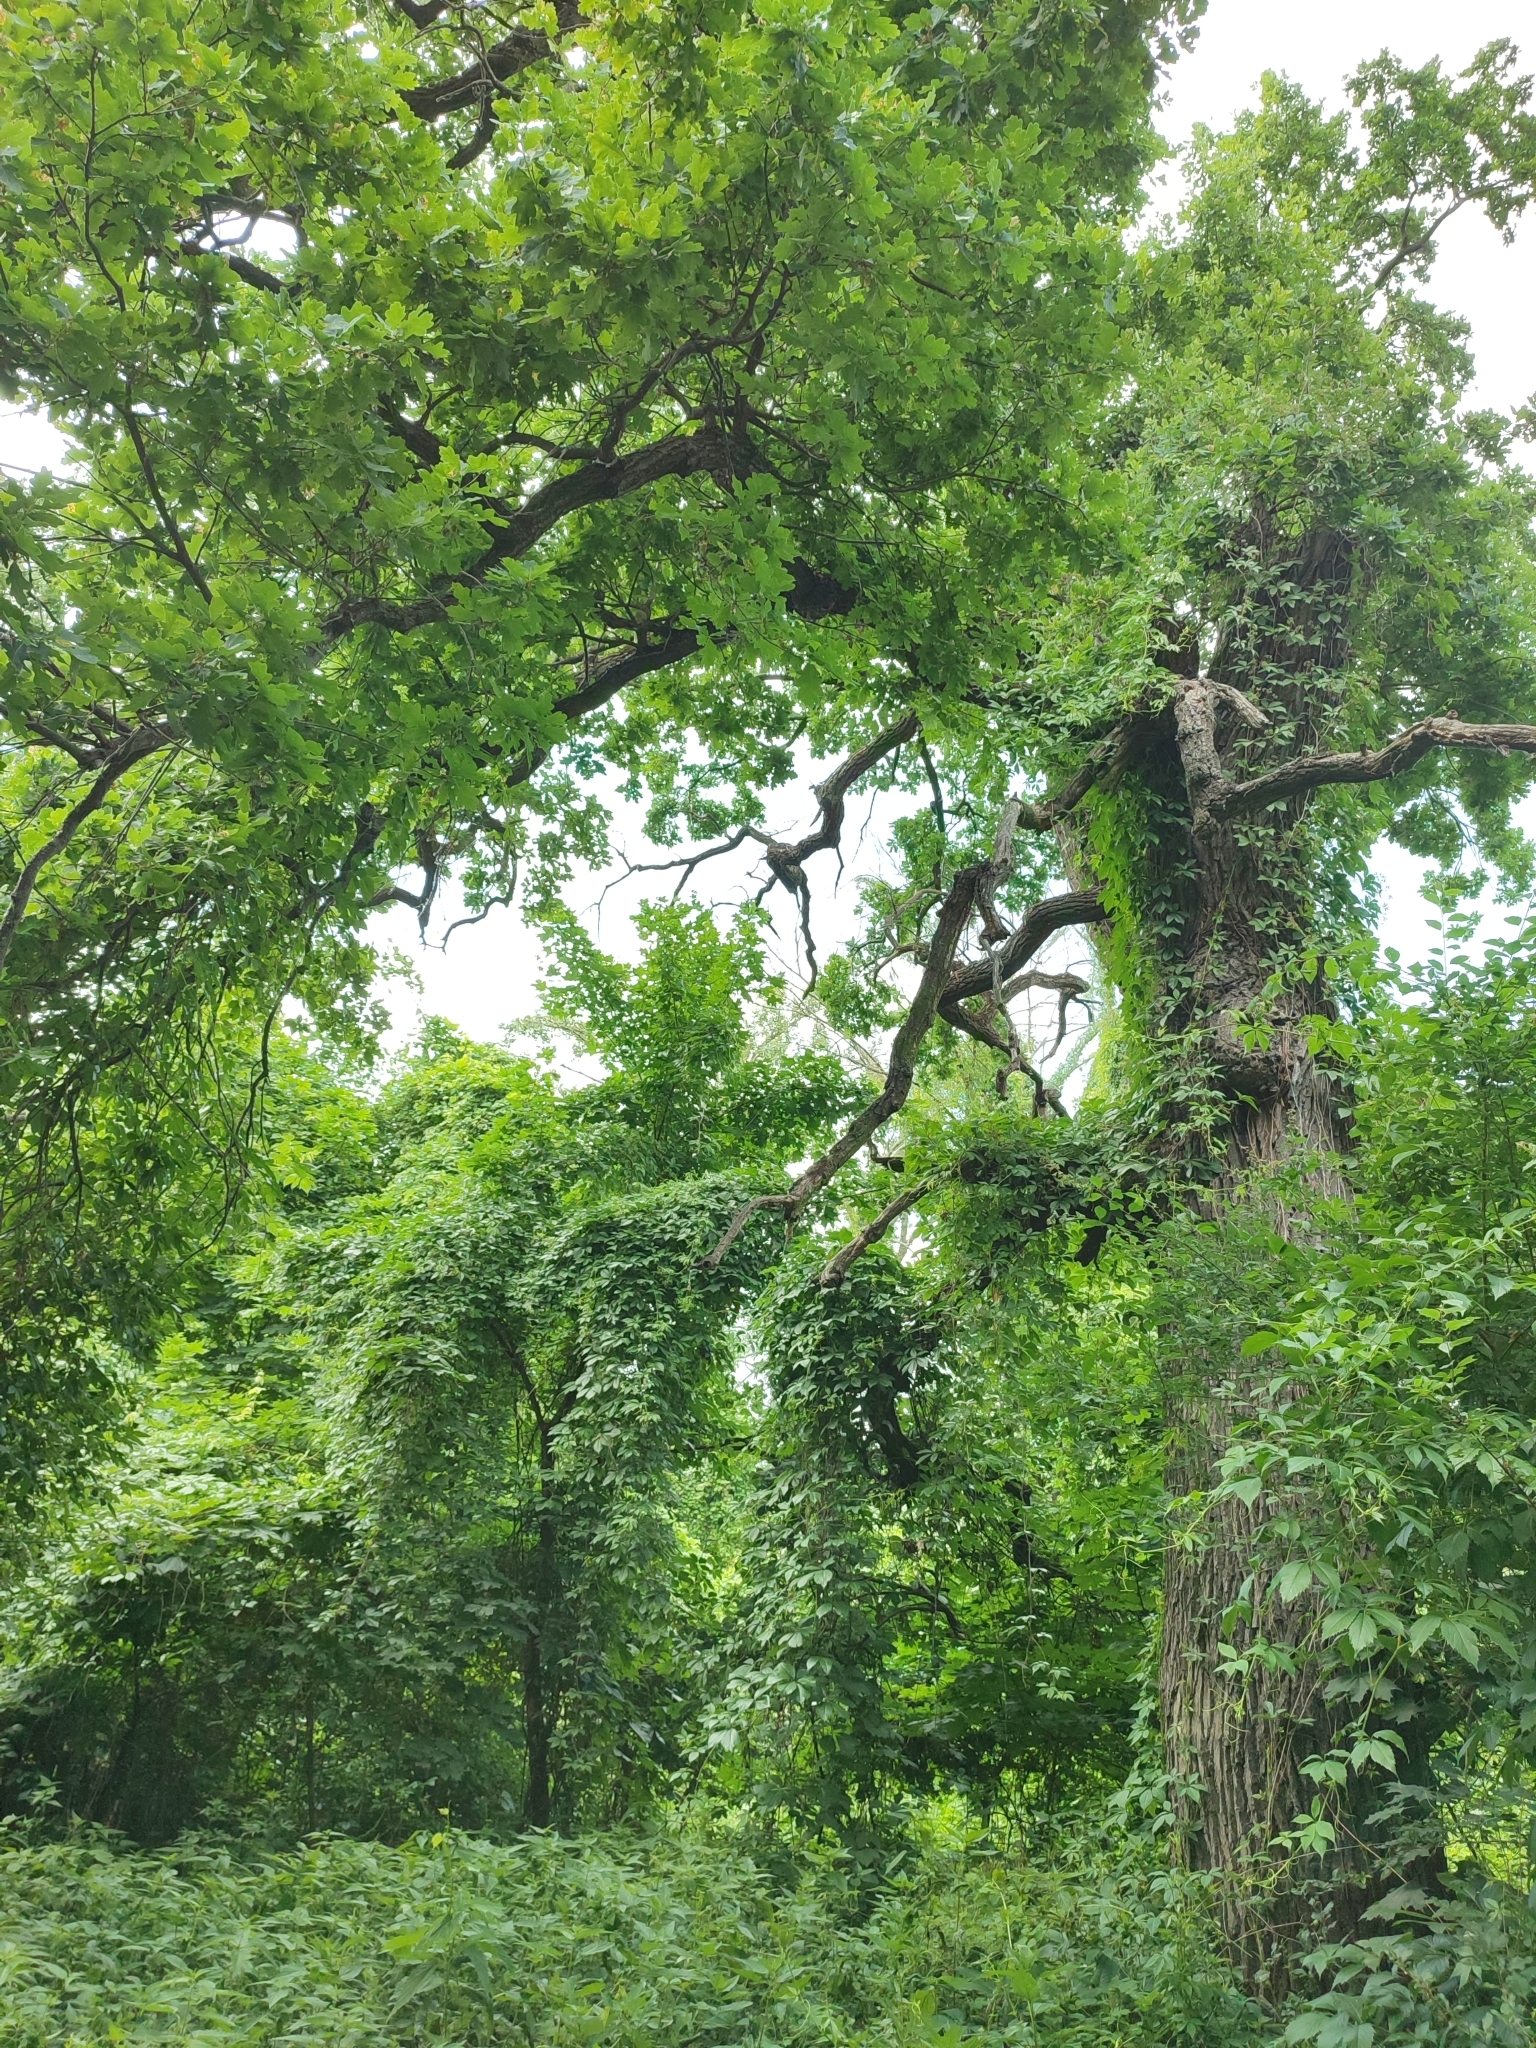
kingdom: Plantae
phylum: Tracheophyta
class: Magnoliopsida
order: Fagales
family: Fagaceae
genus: Quercus
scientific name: Quercus robur
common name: Pedunculate oak
